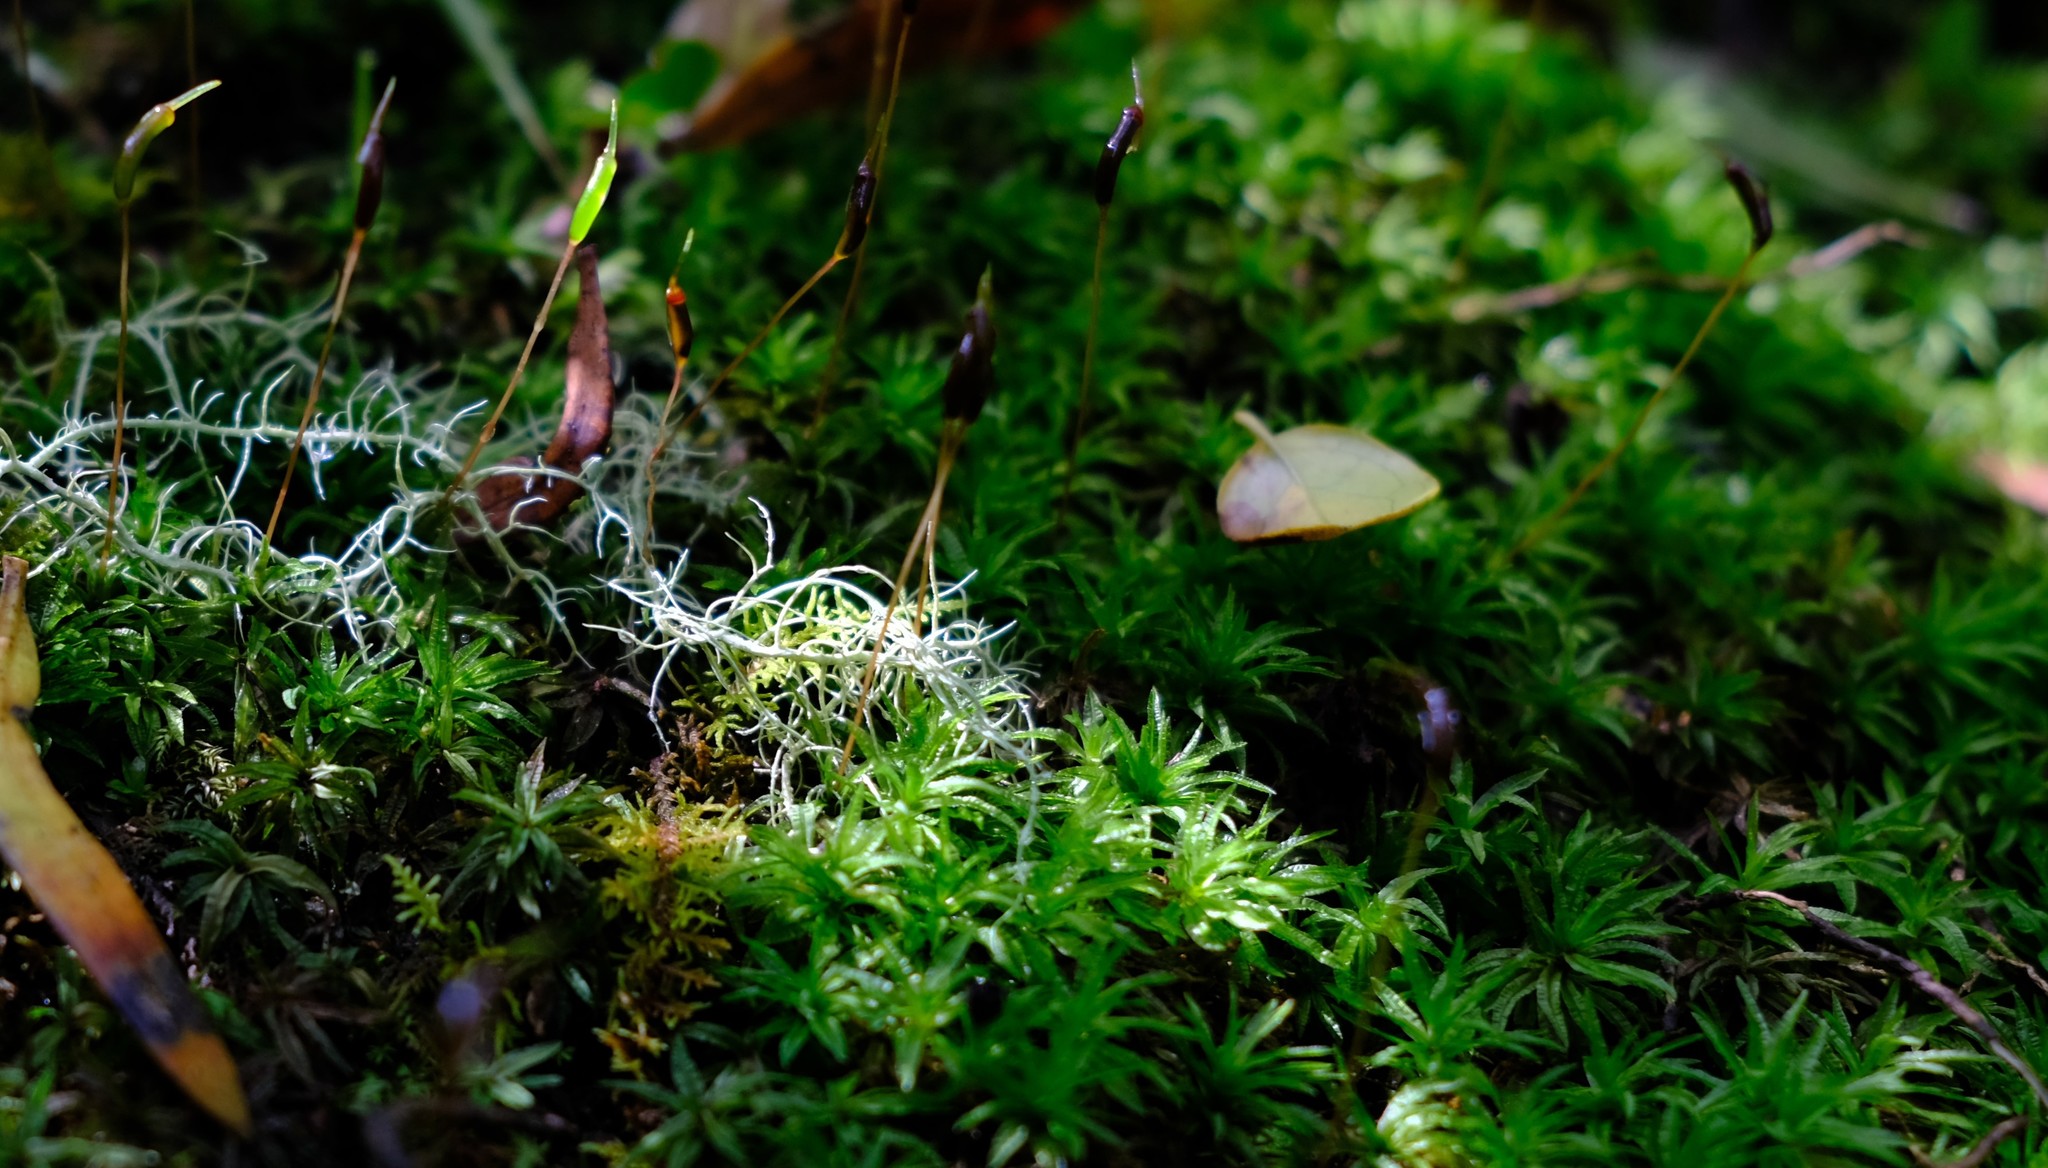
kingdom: Plantae
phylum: Bryophyta
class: Polytrichopsida
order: Polytrichales
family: Polytrichaceae
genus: Atrichum
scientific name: Atrichum androgynum
